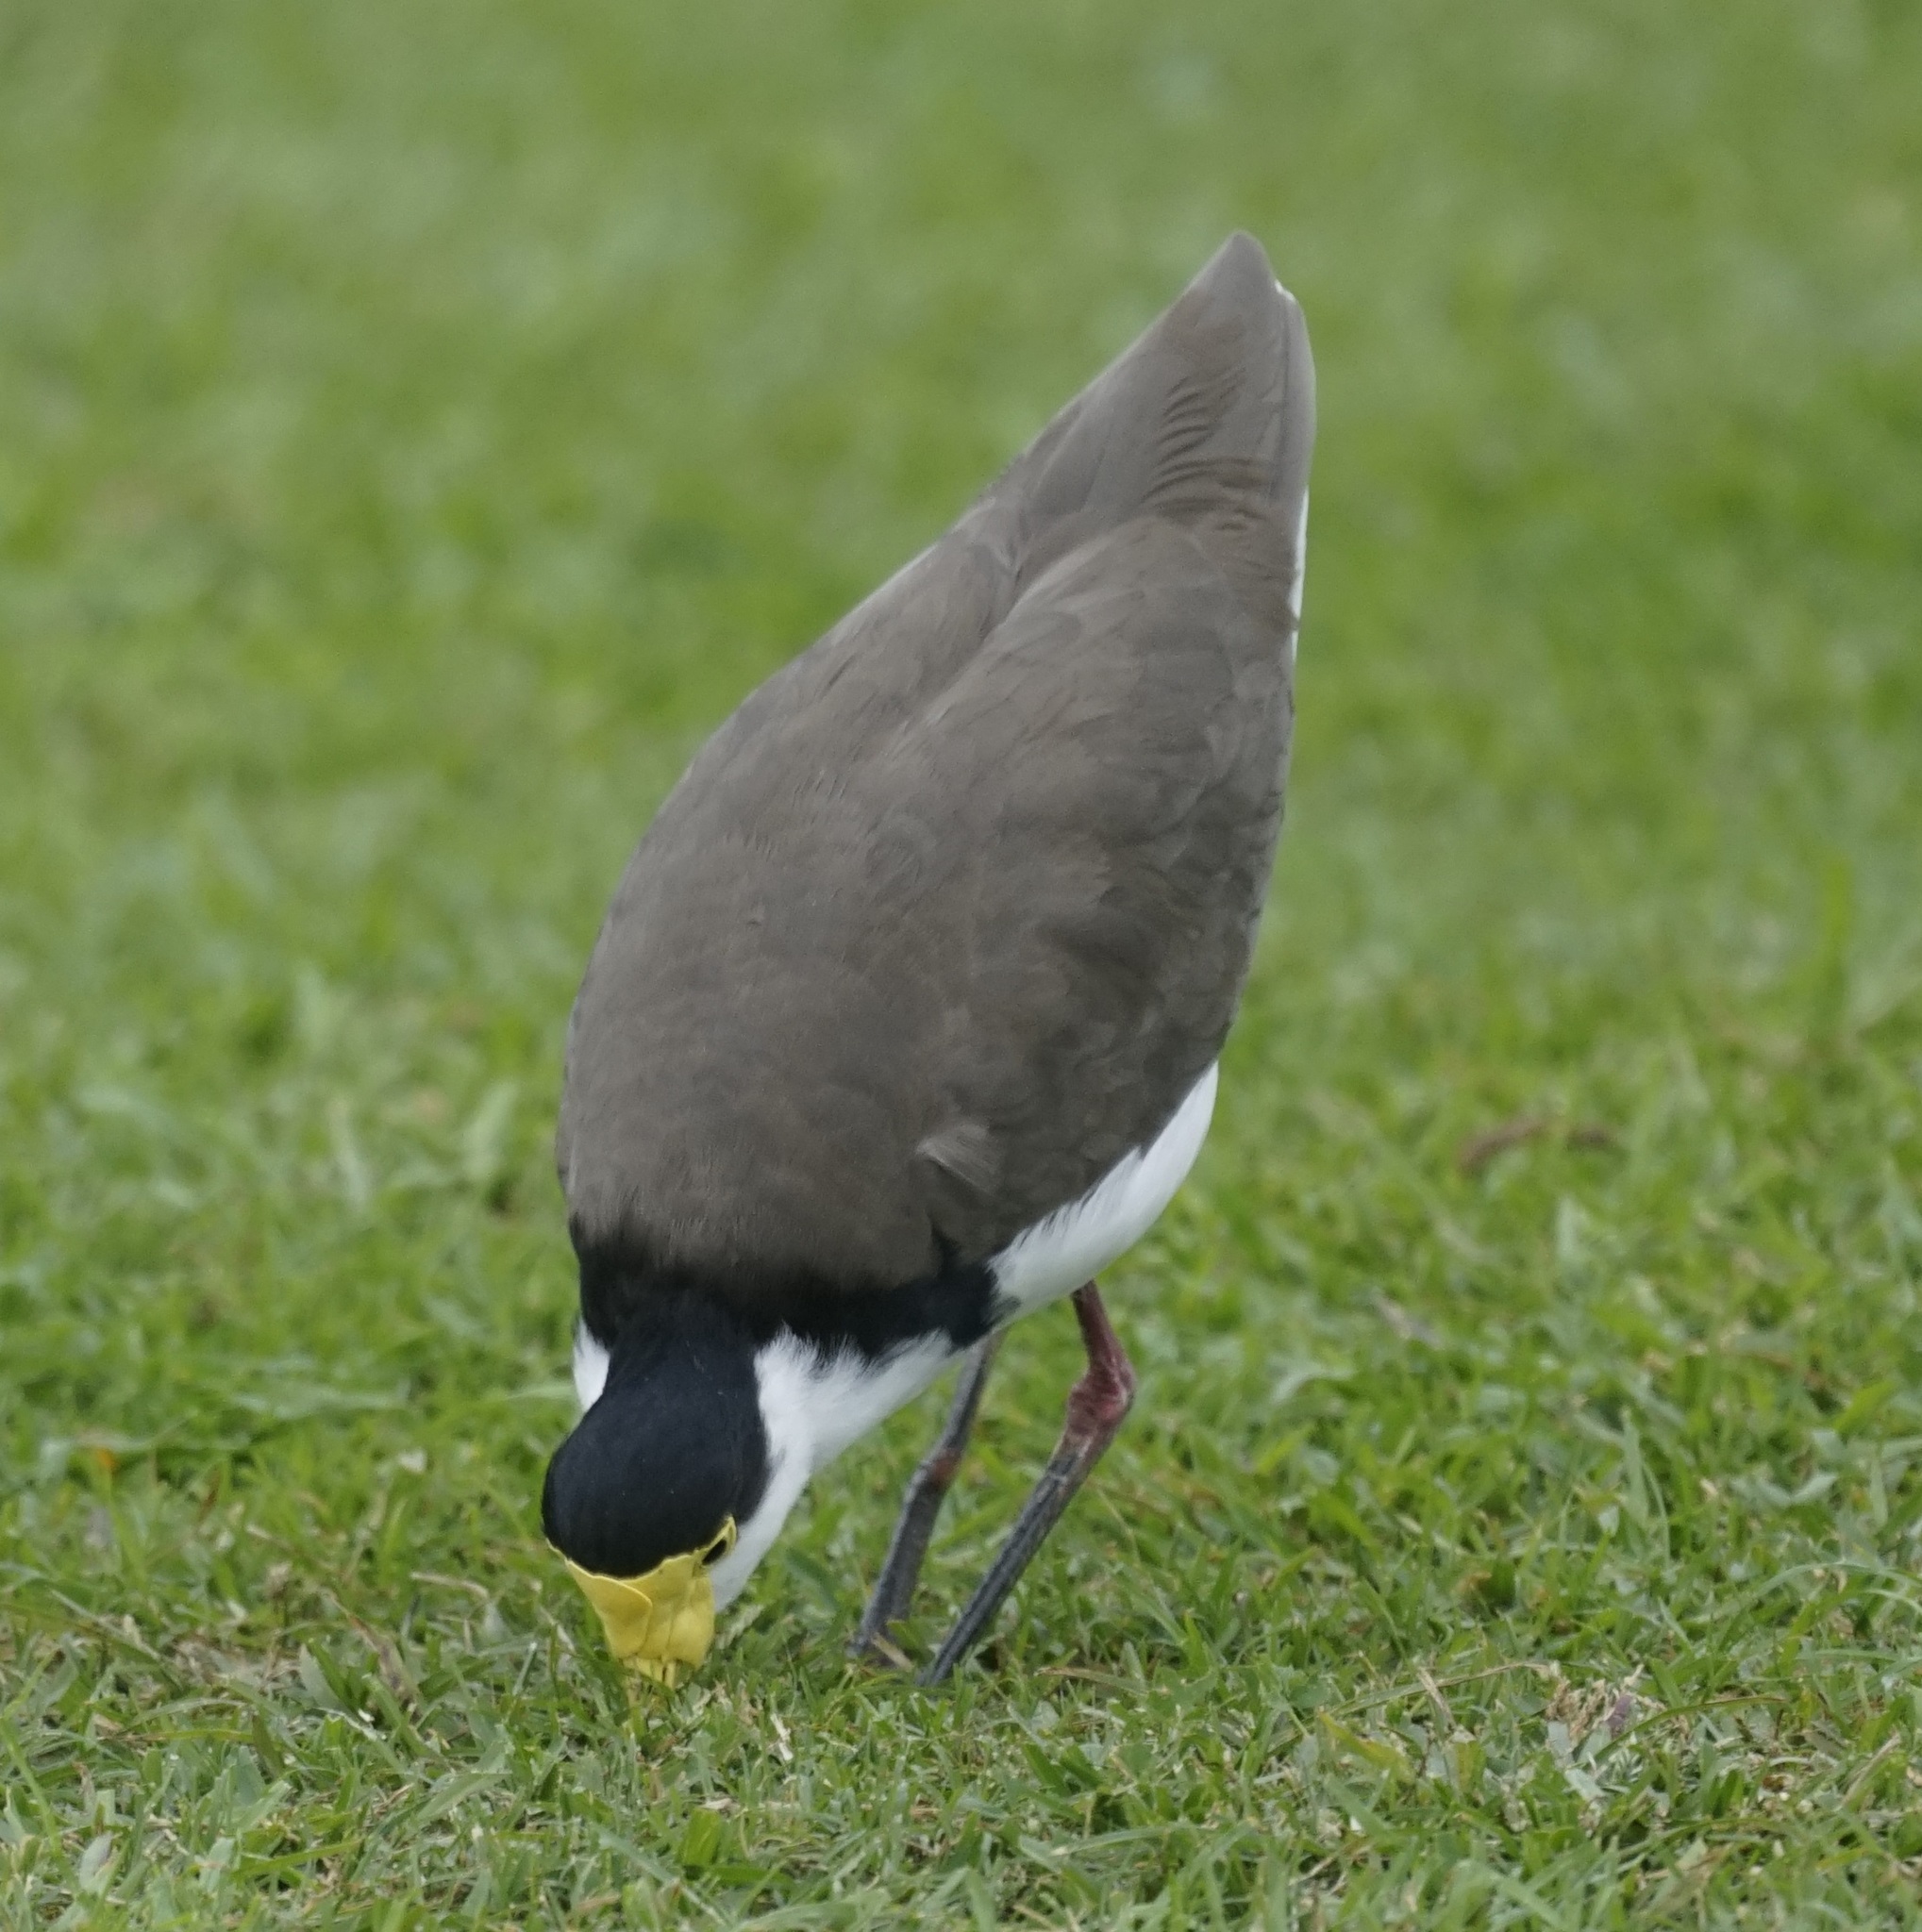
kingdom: Animalia
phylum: Chordata
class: Aves
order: Charadriiformes
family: Charadriidae
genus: Vanellus
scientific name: Vanellus miles
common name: Masked lapwing
